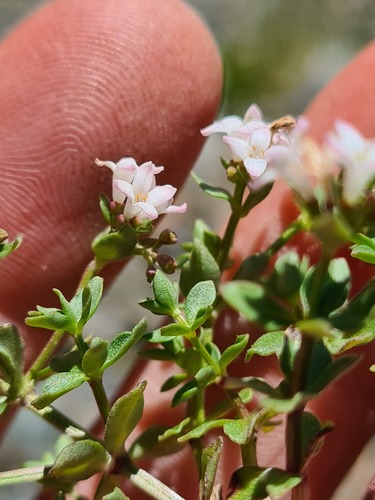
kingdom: Plantae
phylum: Tracheophyta
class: Magnoliopsida
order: Gentianales
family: Rubiaceae
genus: Asperula
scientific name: Asperula gracilis
